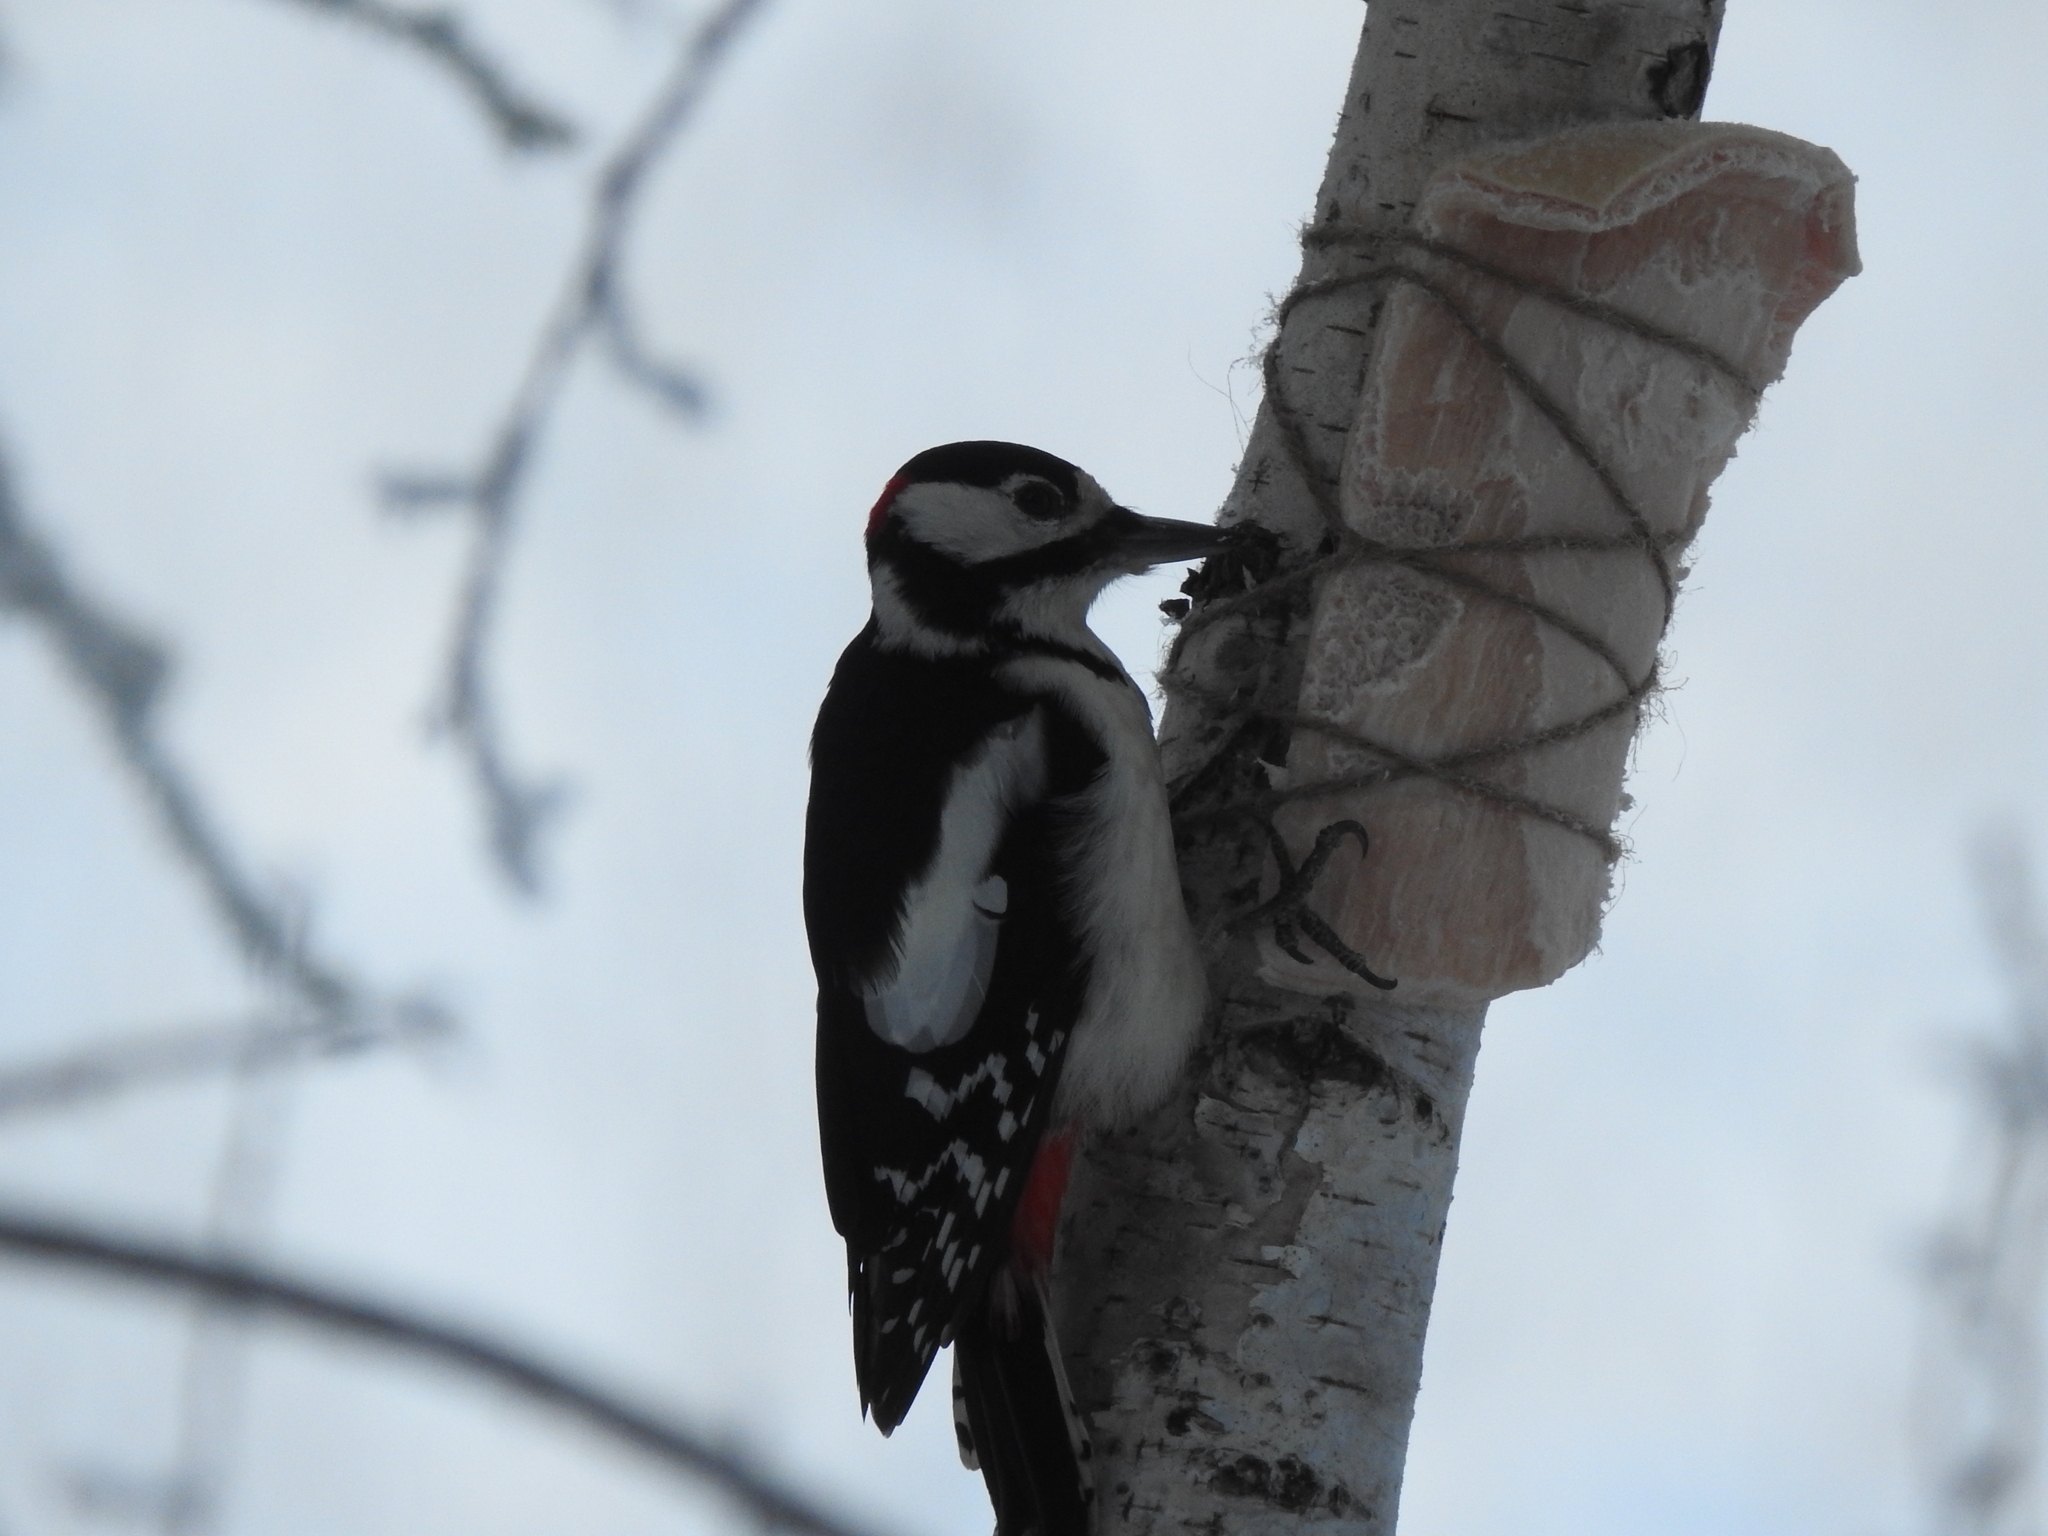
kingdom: Animalia
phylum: Chordata
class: Aves
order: Piciformes
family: Picidae
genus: Dendrocopos
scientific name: Dendrocopos major
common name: Great spotted woodpecker
